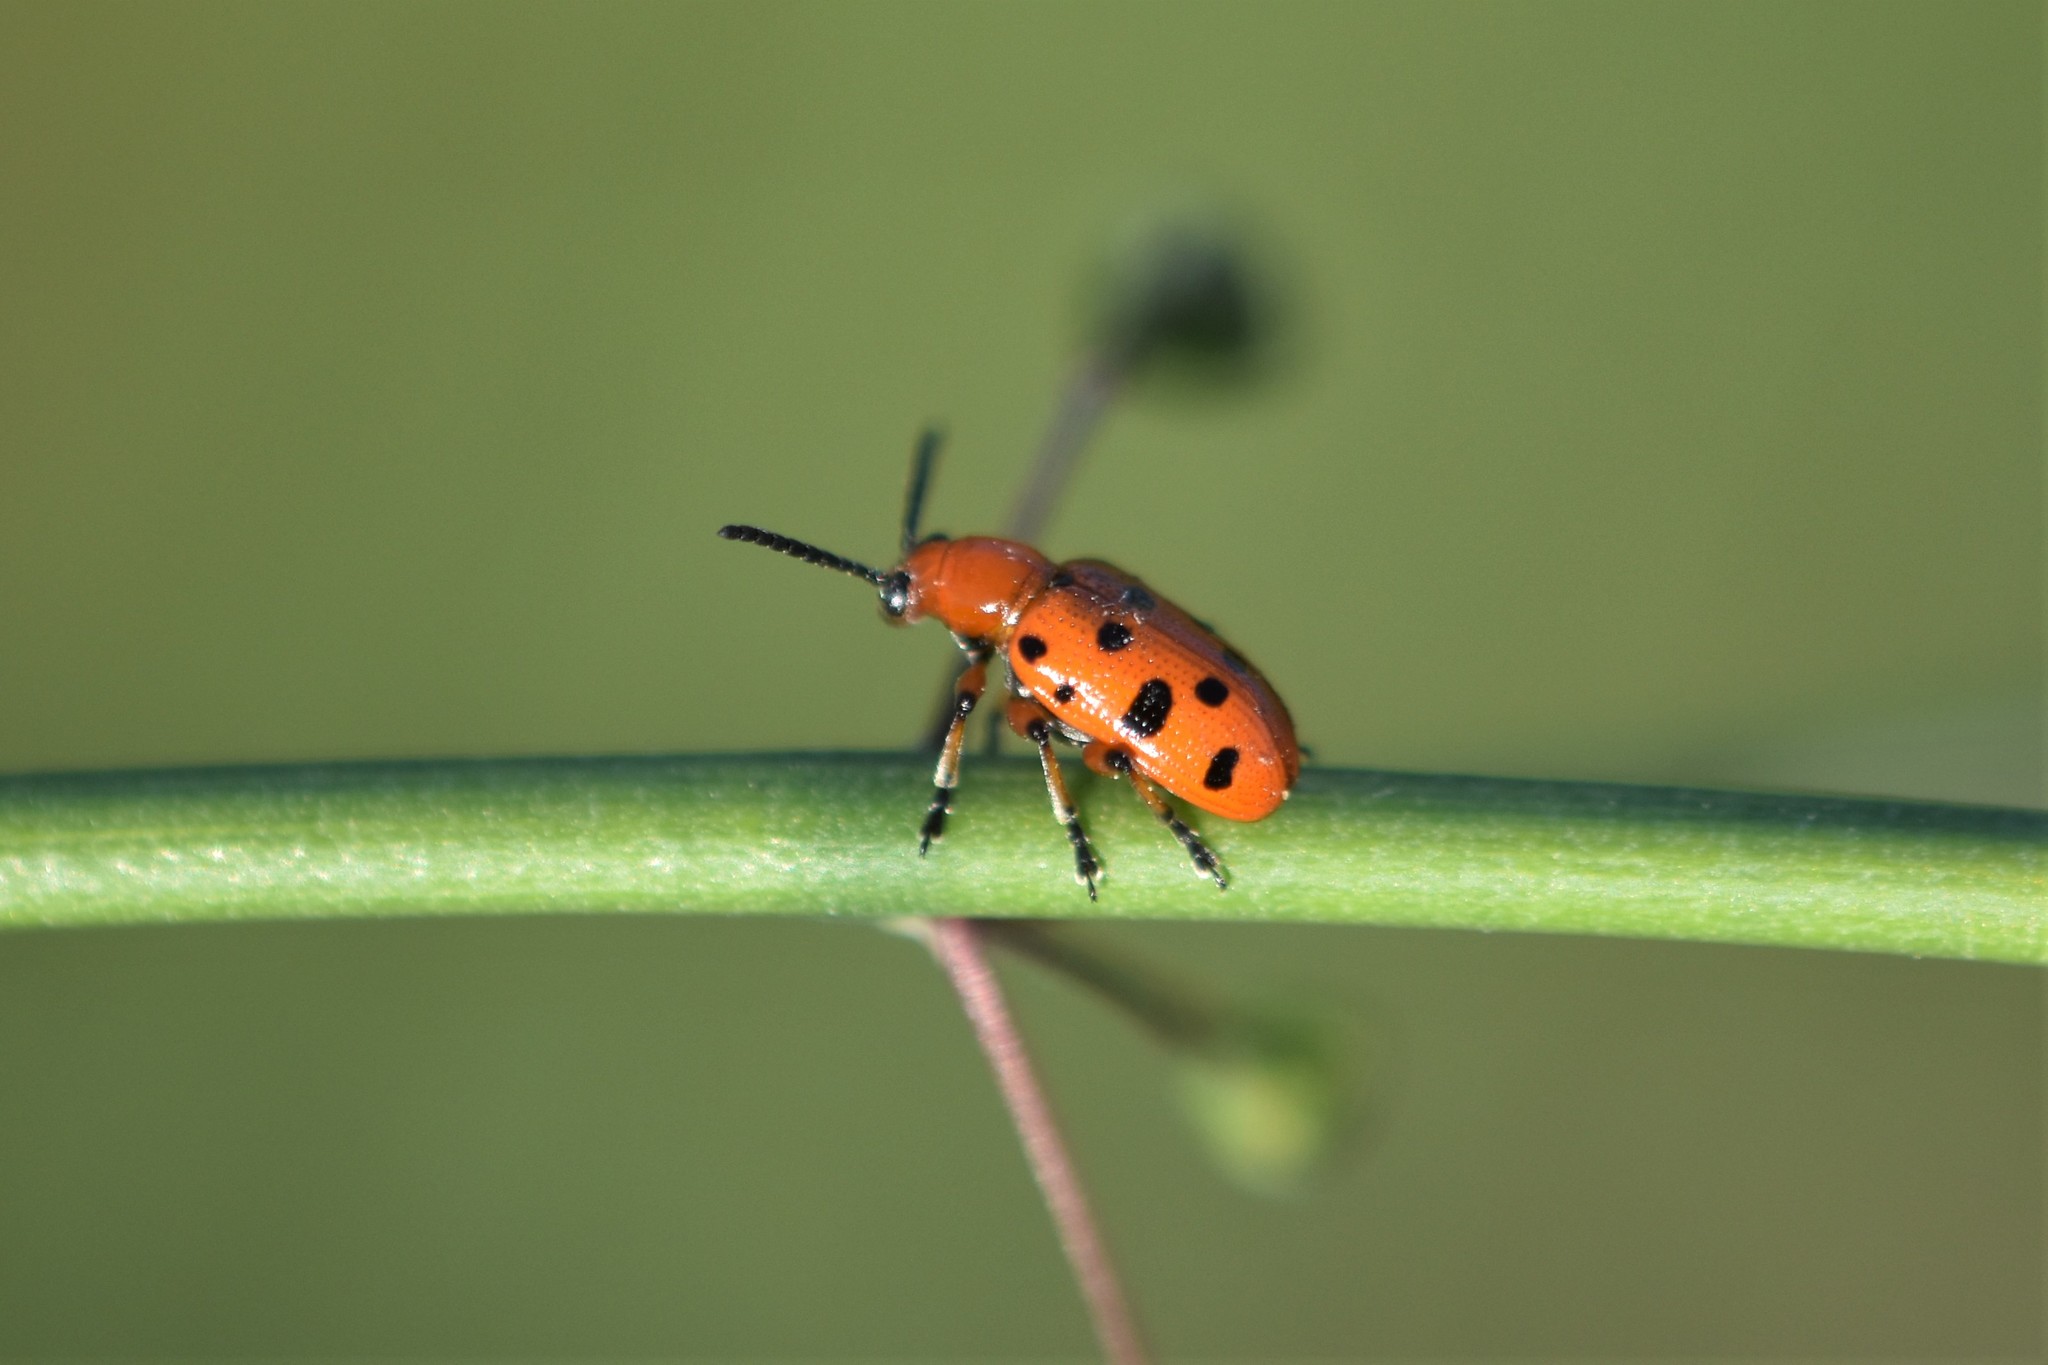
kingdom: Animalia
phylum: Arthropoda
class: Insecta
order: Coleoptera
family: Chrysomelidae
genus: Crioceris
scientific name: Crioceris duodecimpunctata
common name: Twelve-spotted asparagus beetle
